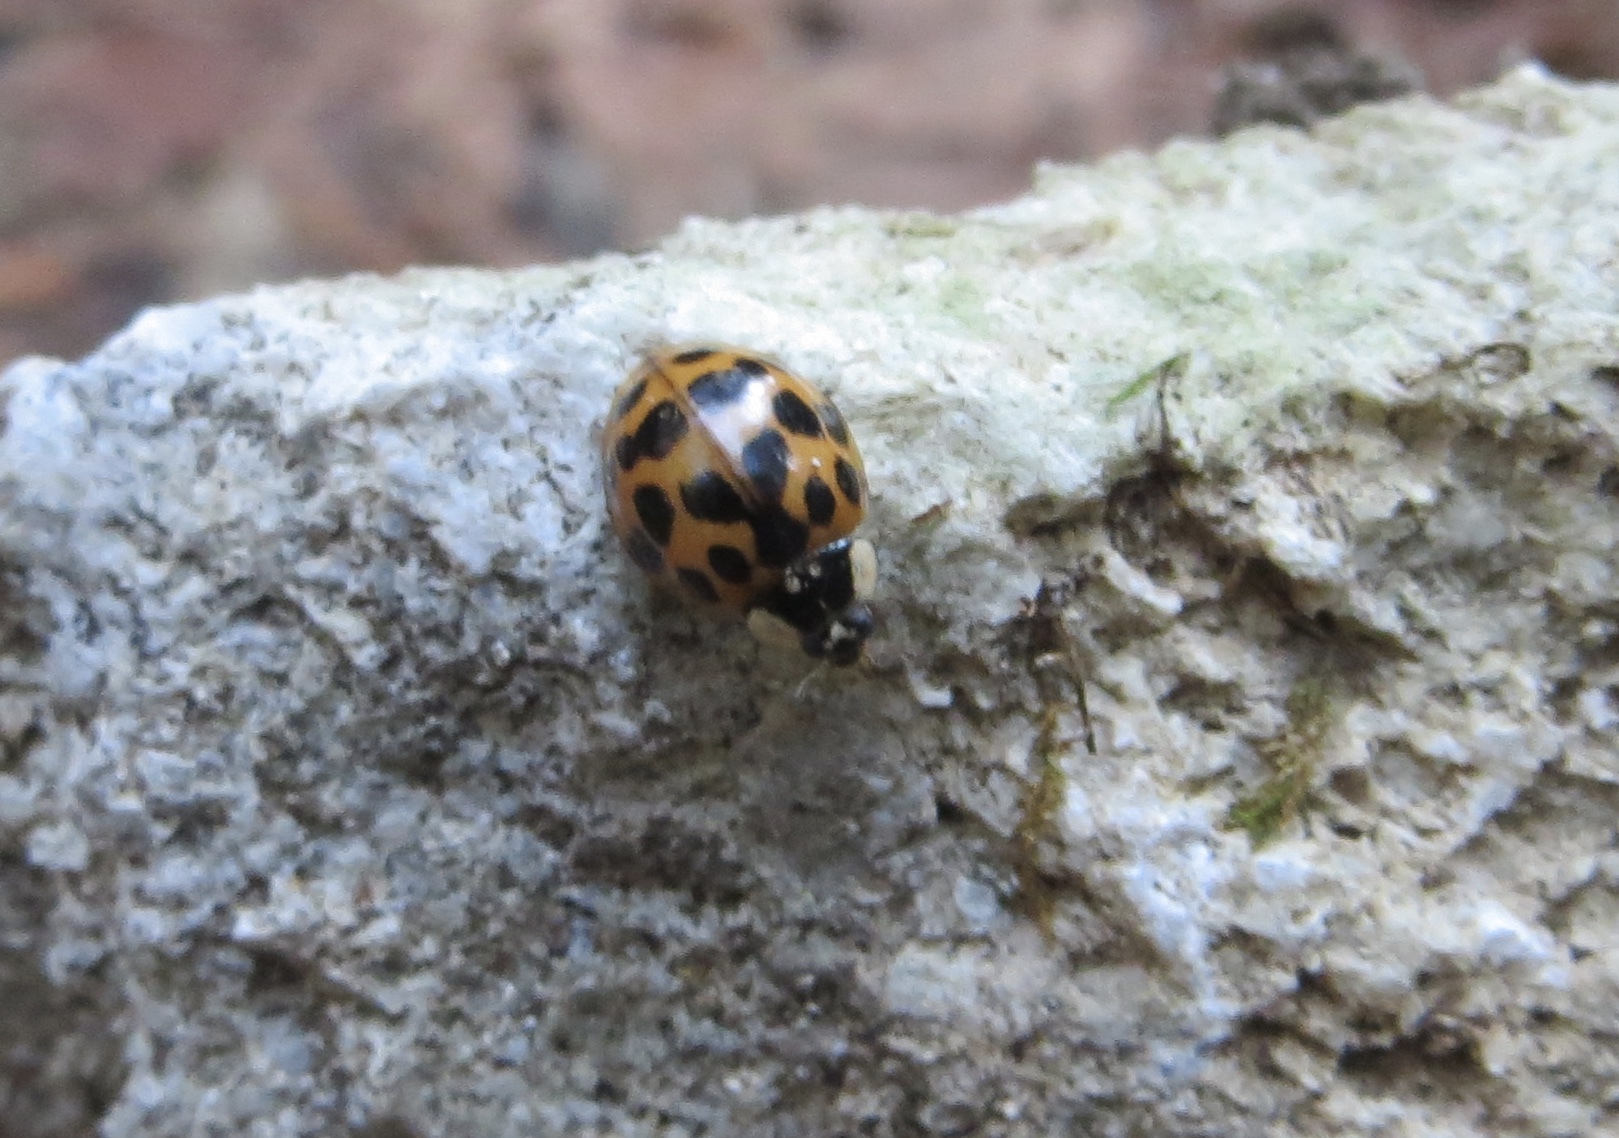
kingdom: Animalia
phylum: Arthropoda
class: Insecta
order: Coleoptera
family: Coccinellidae
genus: Harmonia
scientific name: Harmonia axyridis
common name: Harlequin ladybird
